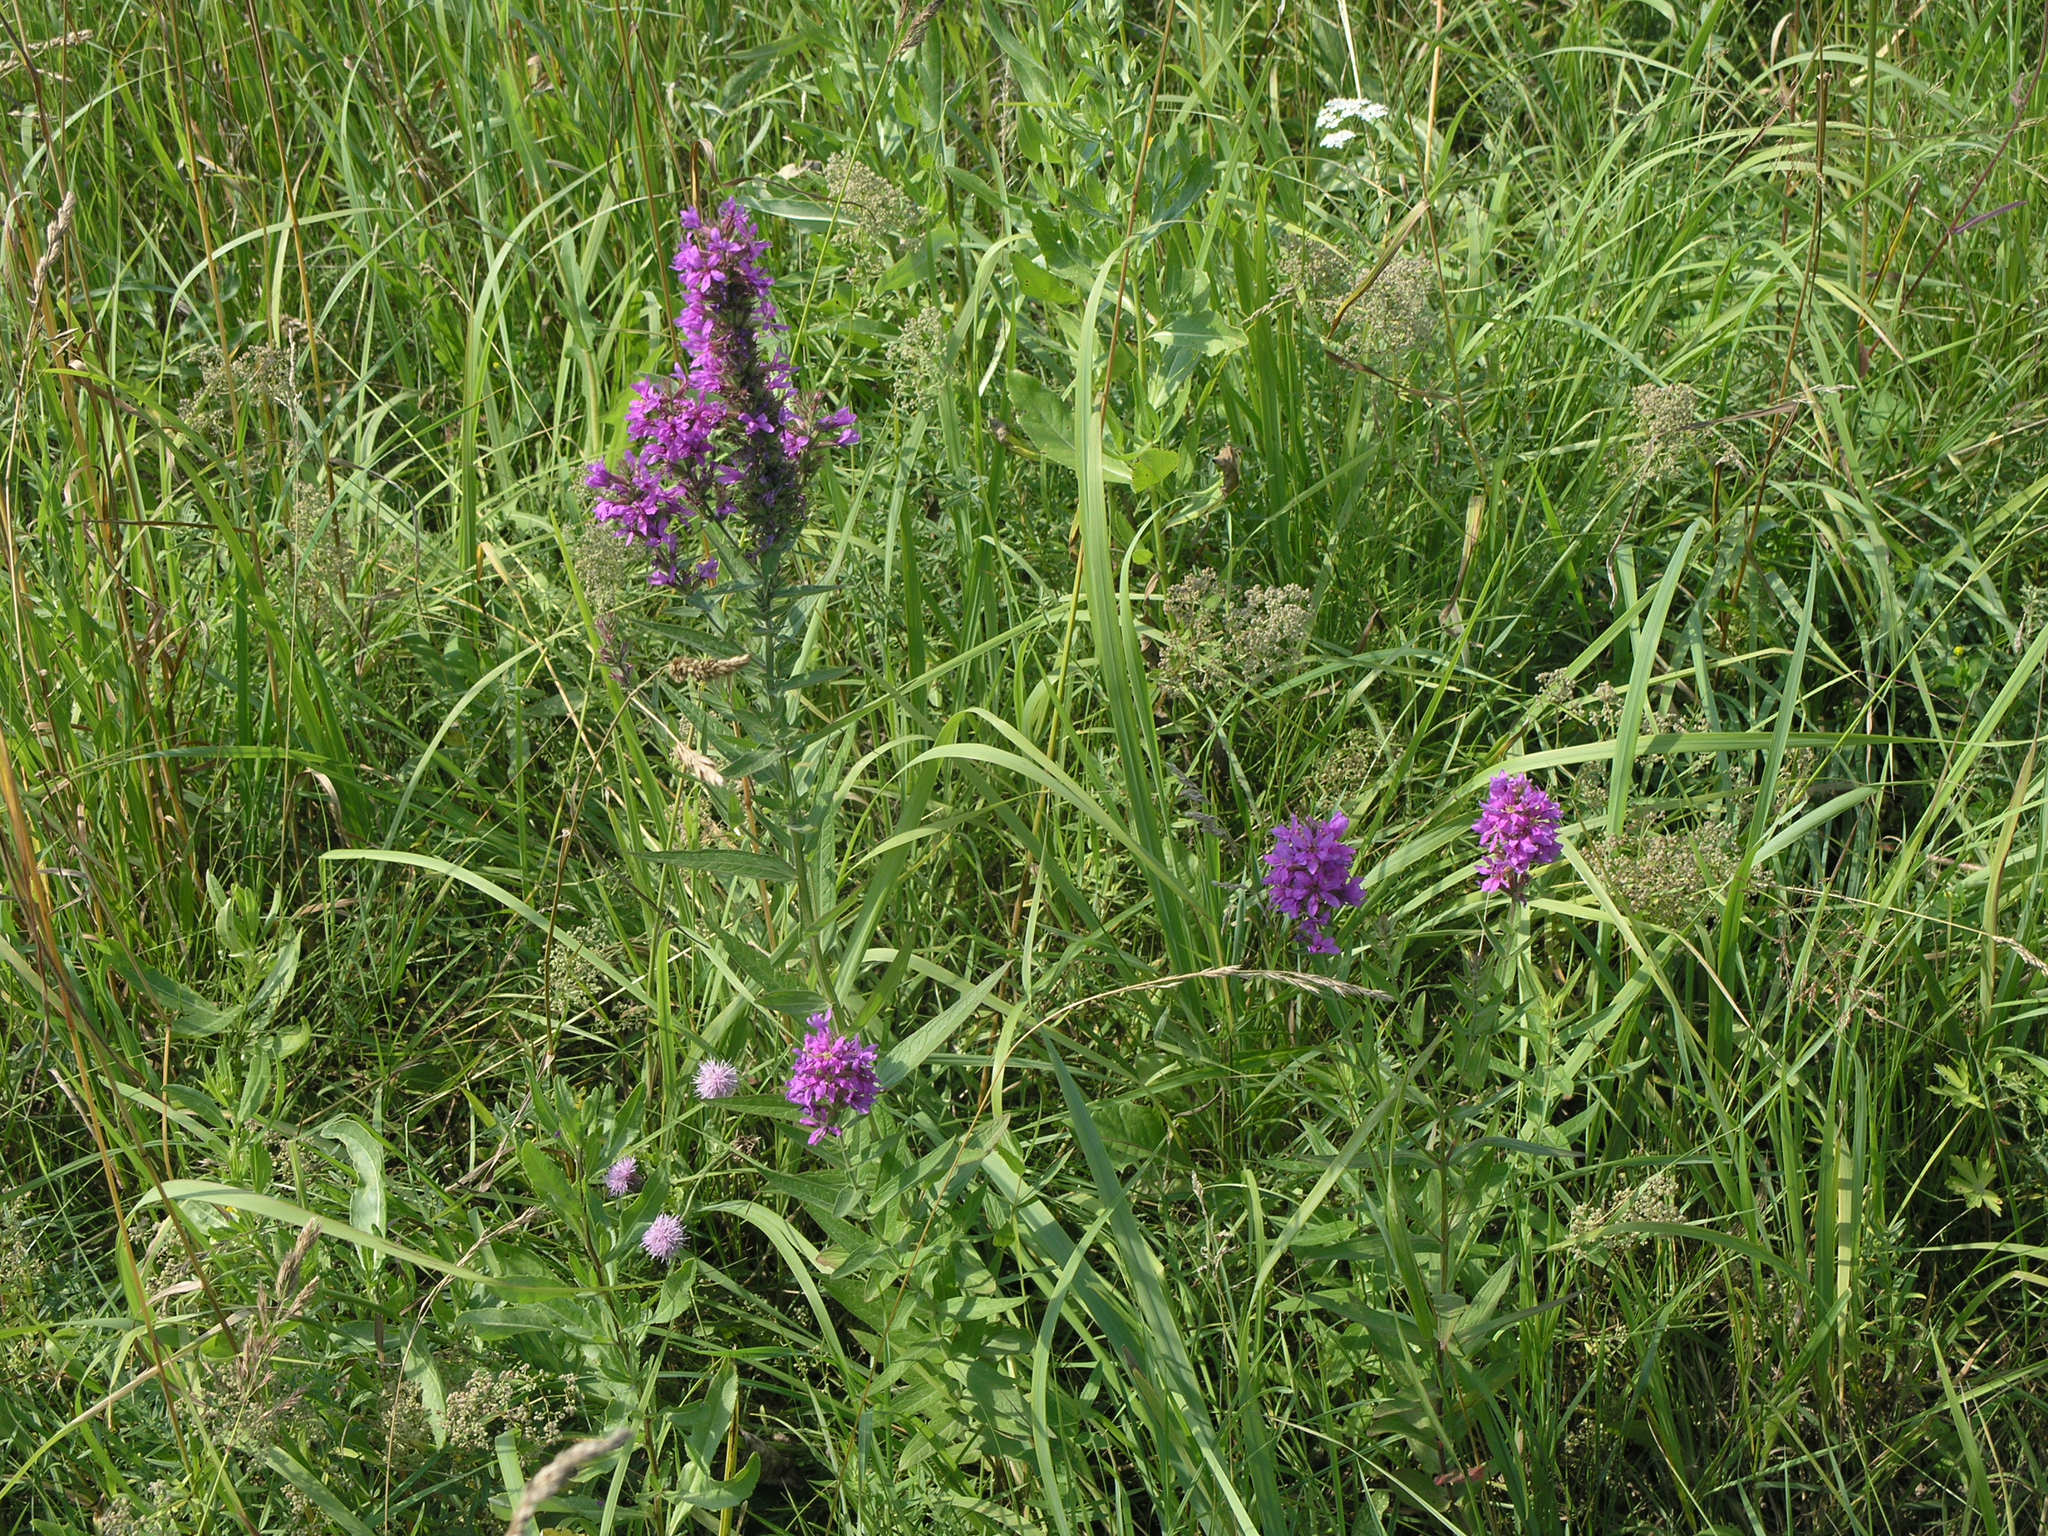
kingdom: Plantae
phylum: Tracheophyta
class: Magnoliopsida
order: Myrtales
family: Lythraceae
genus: Lythrum
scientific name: Lythrum salicaria
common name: Purple loosestrife
